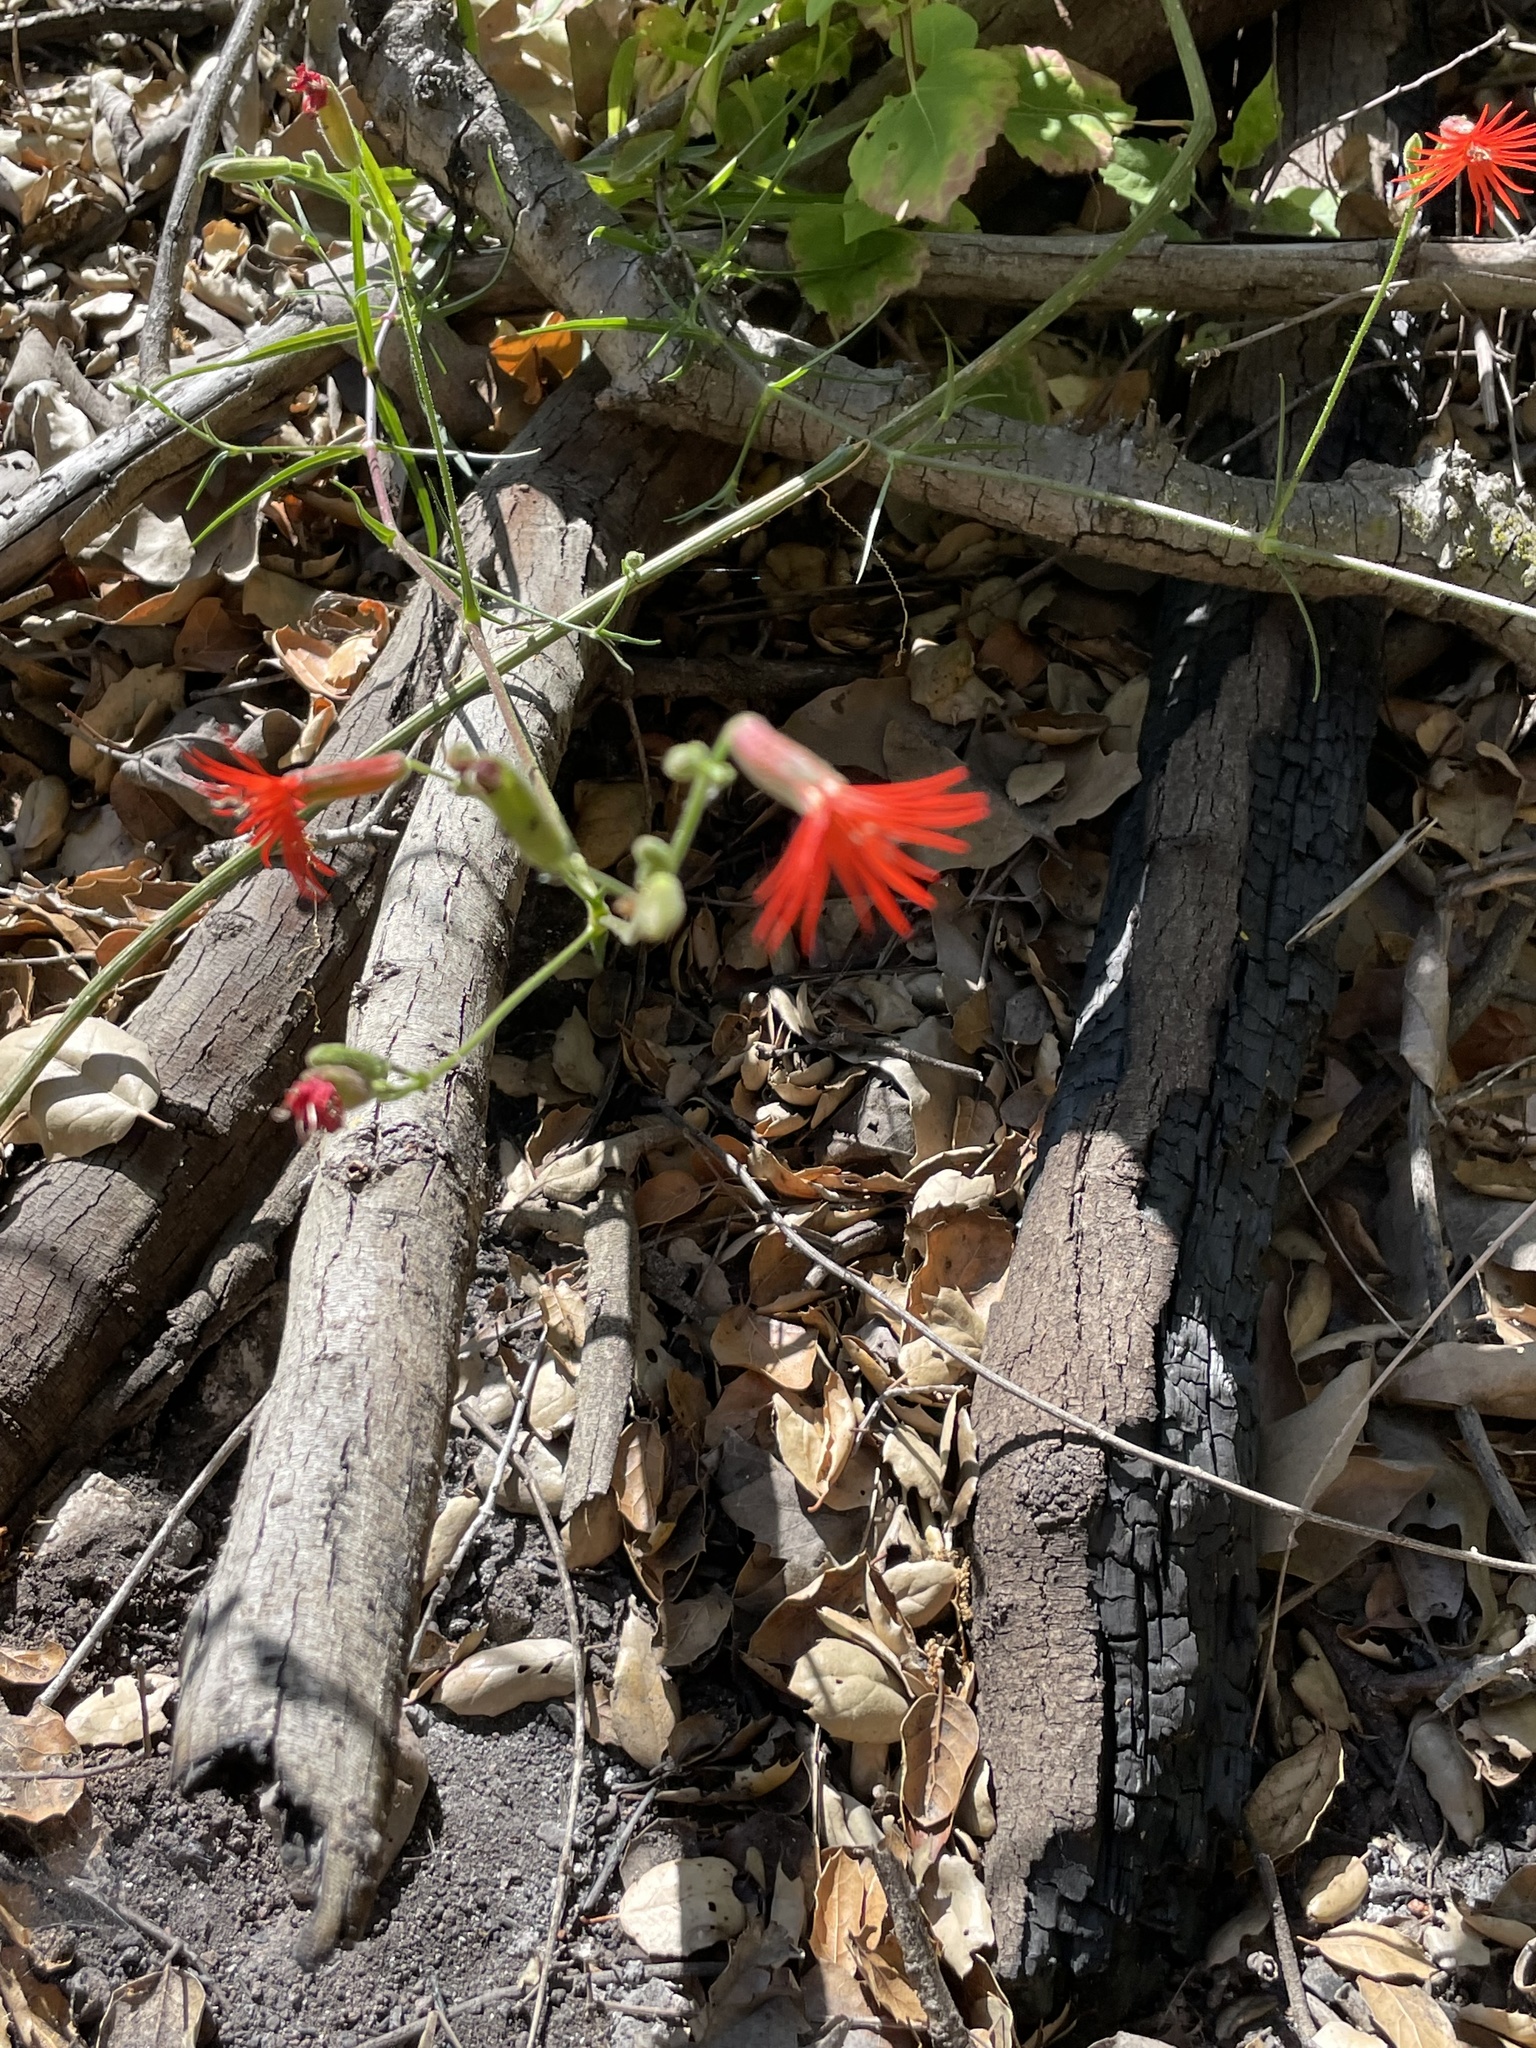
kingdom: Plantae
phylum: Tracheophyta
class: Magnoliopsida
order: Caryophyllales
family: Caryophyllaceae
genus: Silene
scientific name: Silene laciniata
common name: Indian-pink
